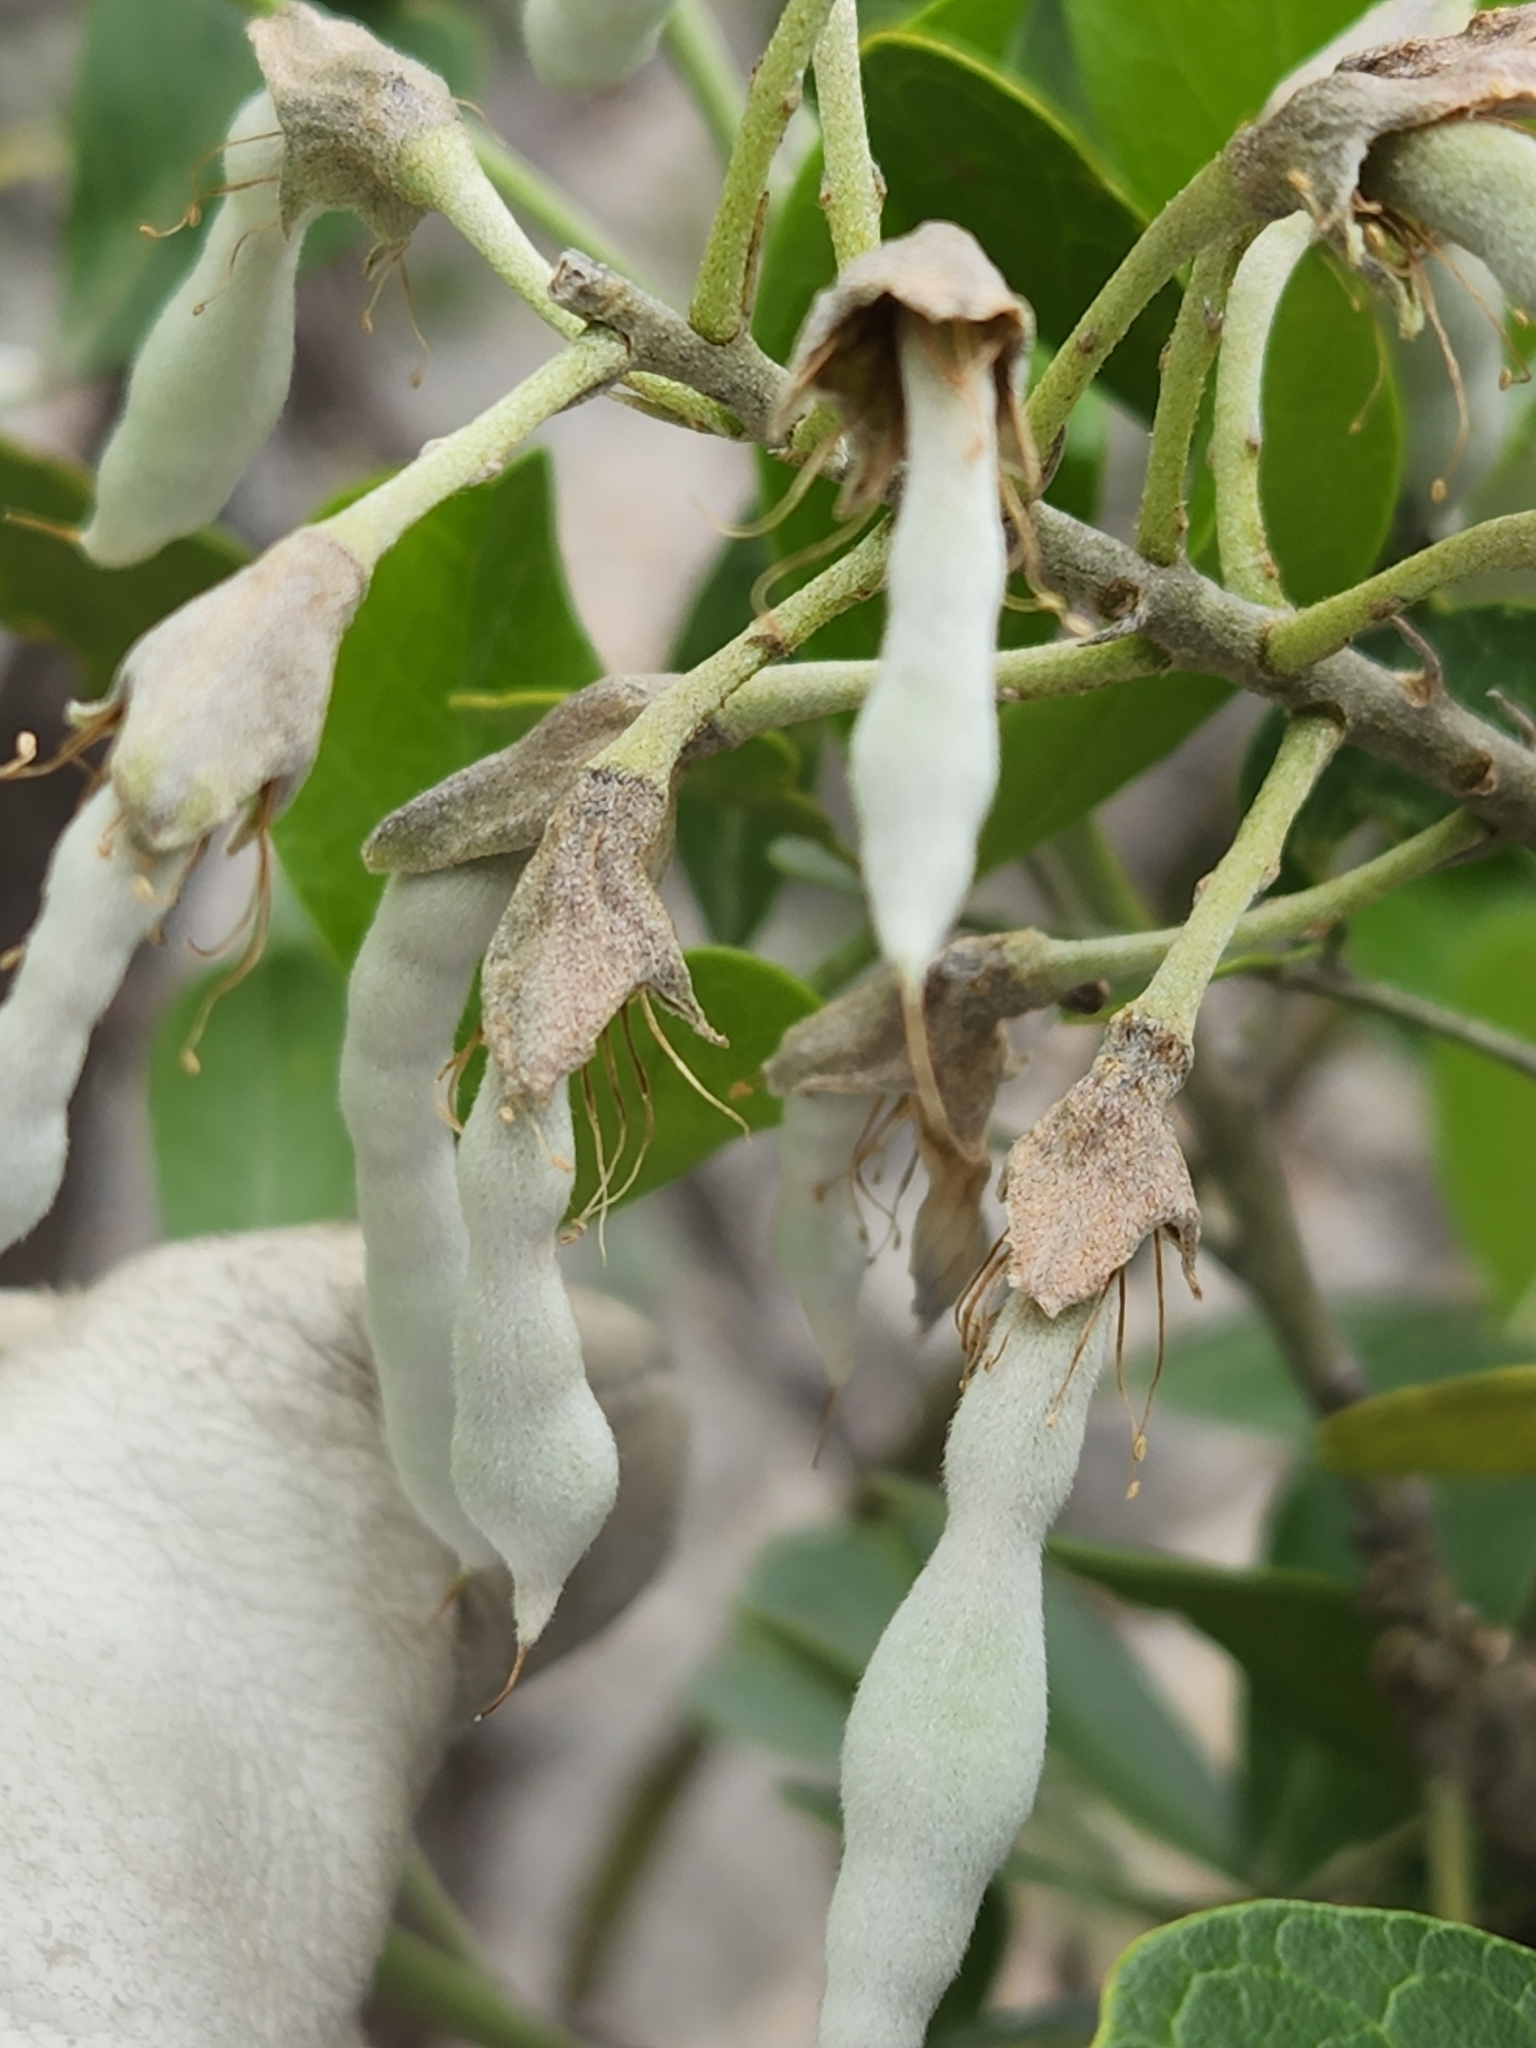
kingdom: Plantae
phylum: Tracheophyta
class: Magnoliopsida
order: Fabales
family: Fabaceae
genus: Dermatophyllum
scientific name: Dermatophyllum secundiflorum
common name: Texas-mountain-laurel
